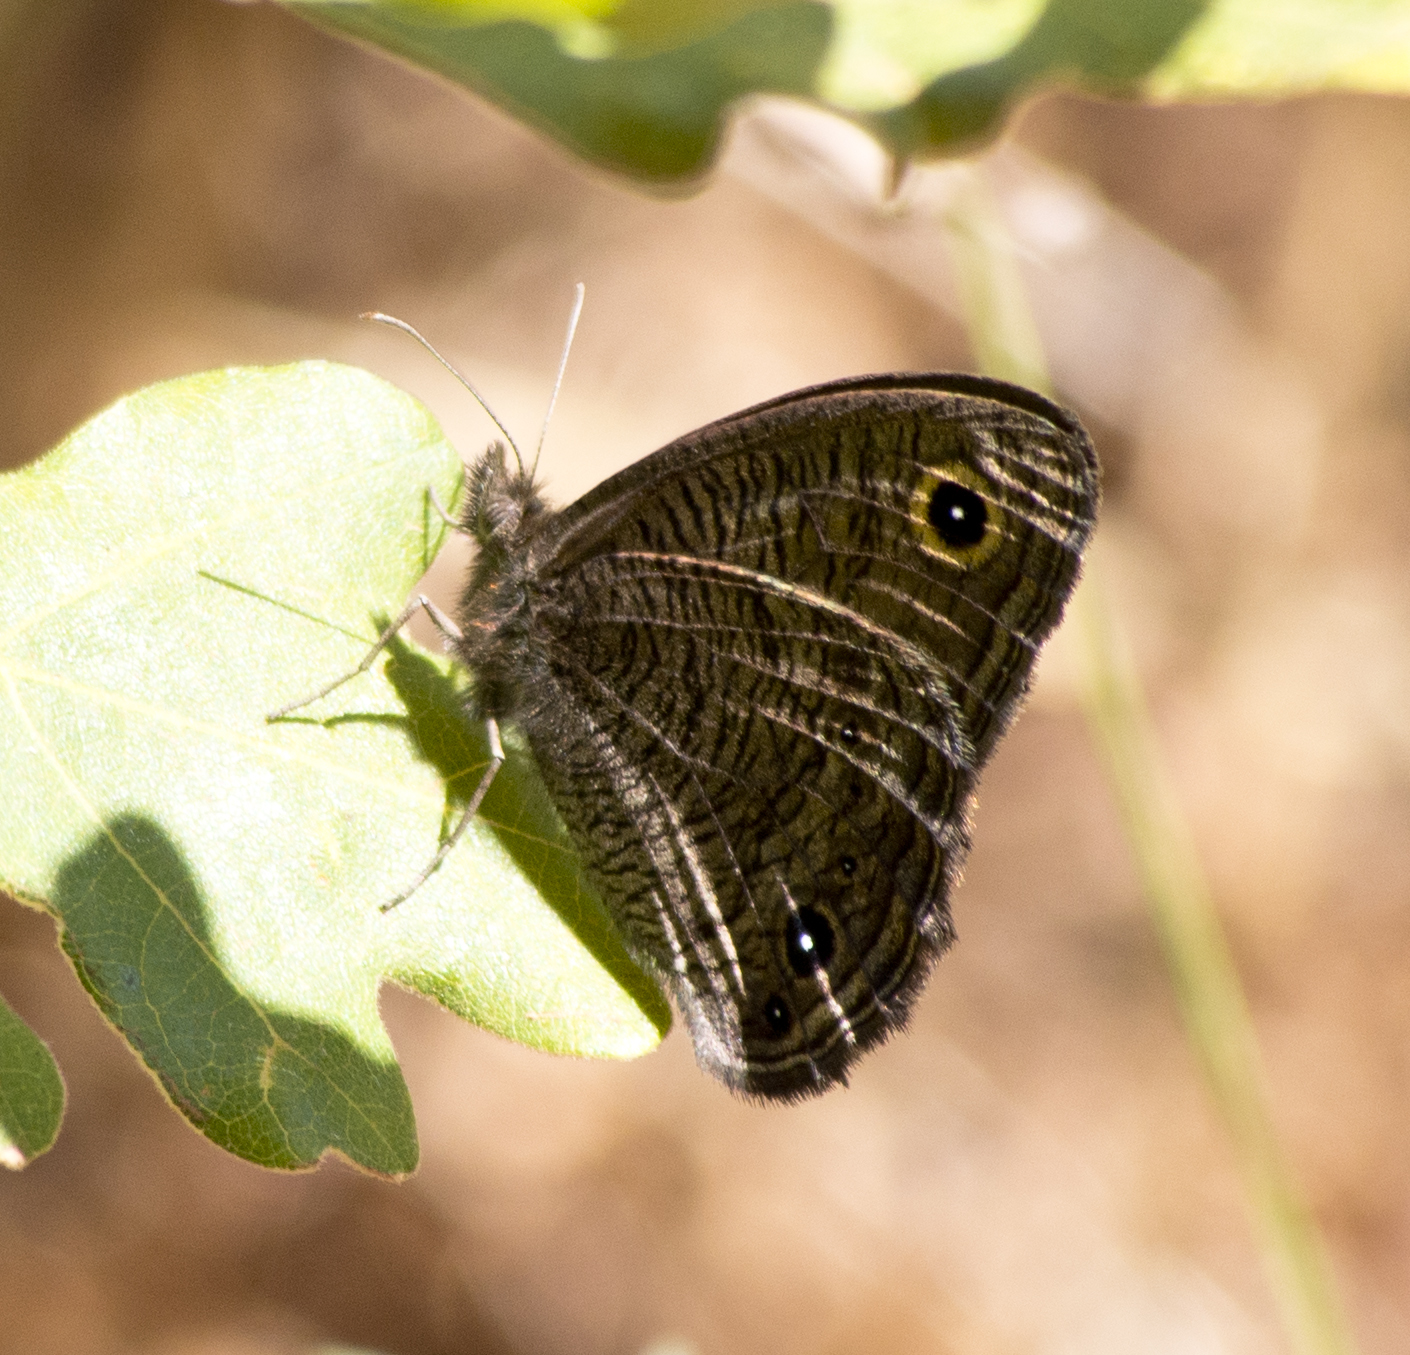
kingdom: Animalia
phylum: Arthropoda
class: Insecta
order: Lepidoptera
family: Nymphalidae
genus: Cercyonis
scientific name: Cercyonis sthenele
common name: Great basin wood-nymph
